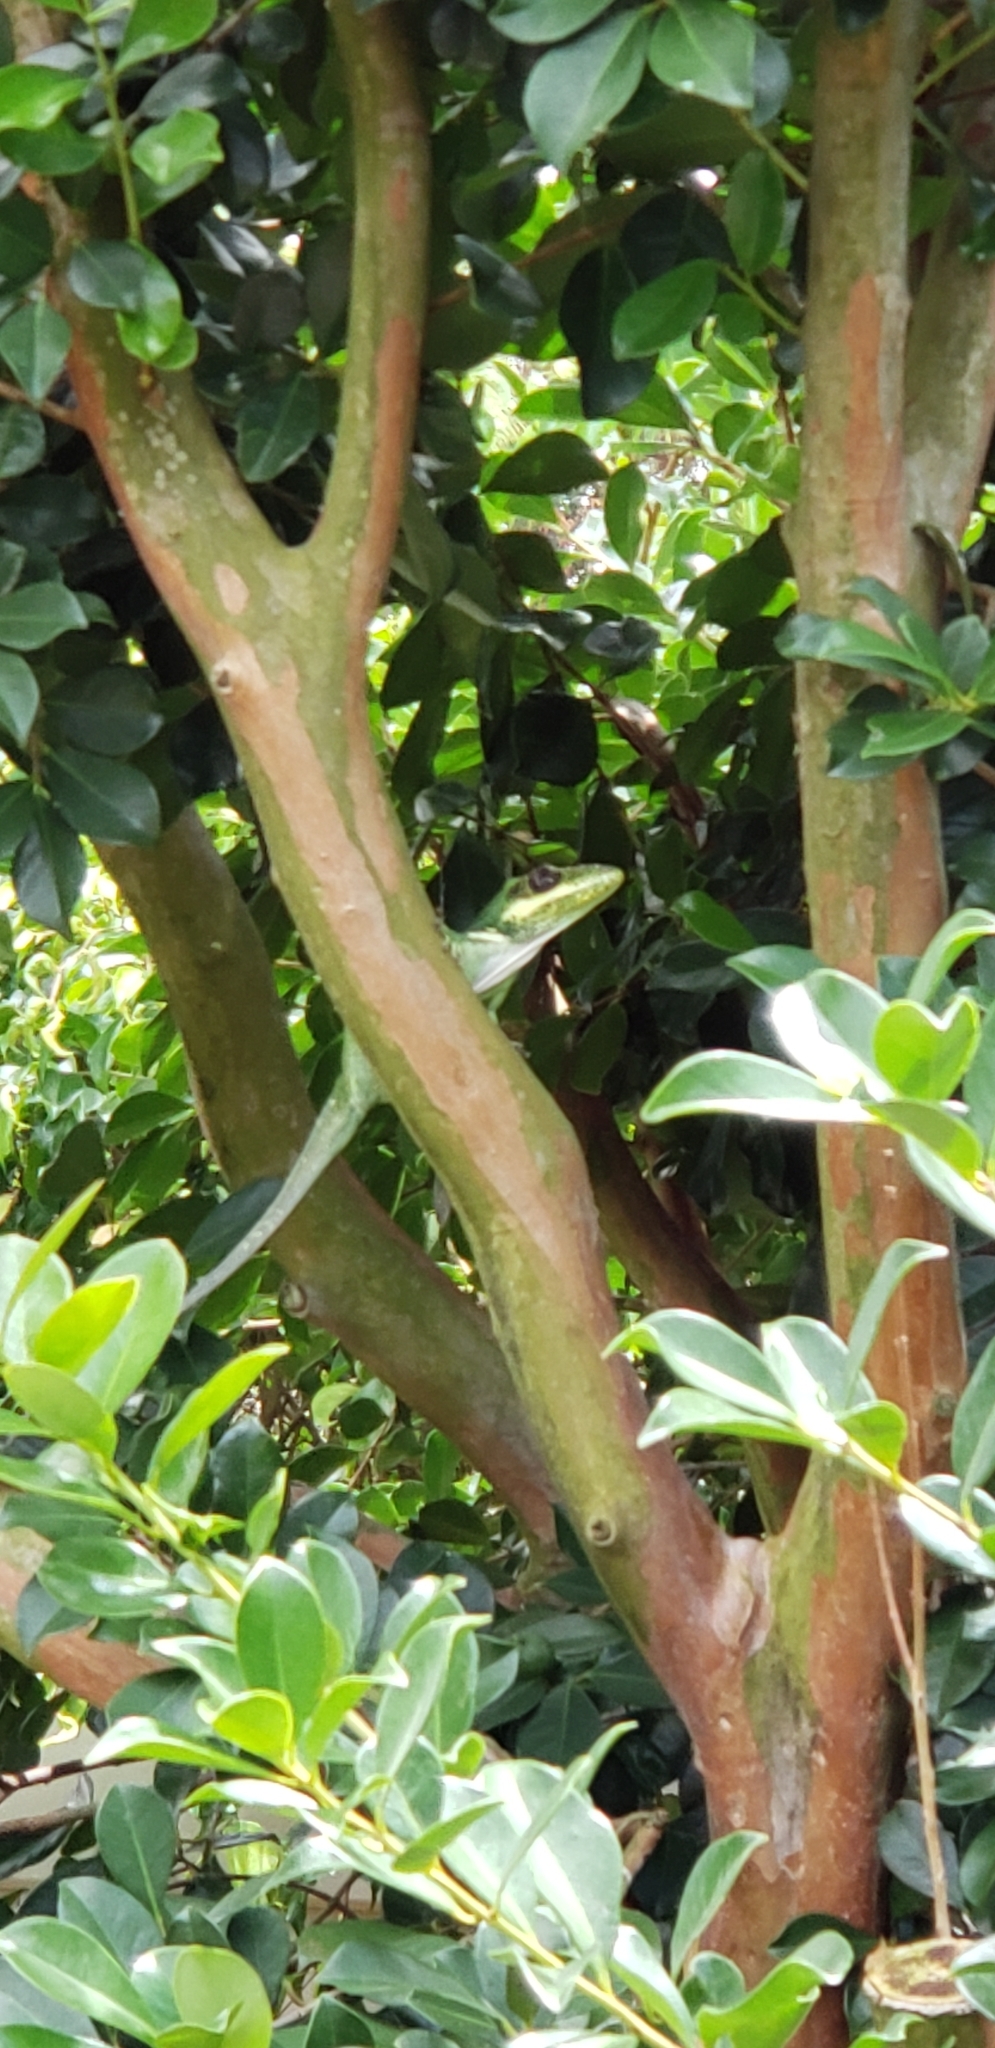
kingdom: Animalia
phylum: Chordata
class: Squamata
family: Dactyloidae
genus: Anolis
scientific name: Anolis equestris
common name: Knight anole
